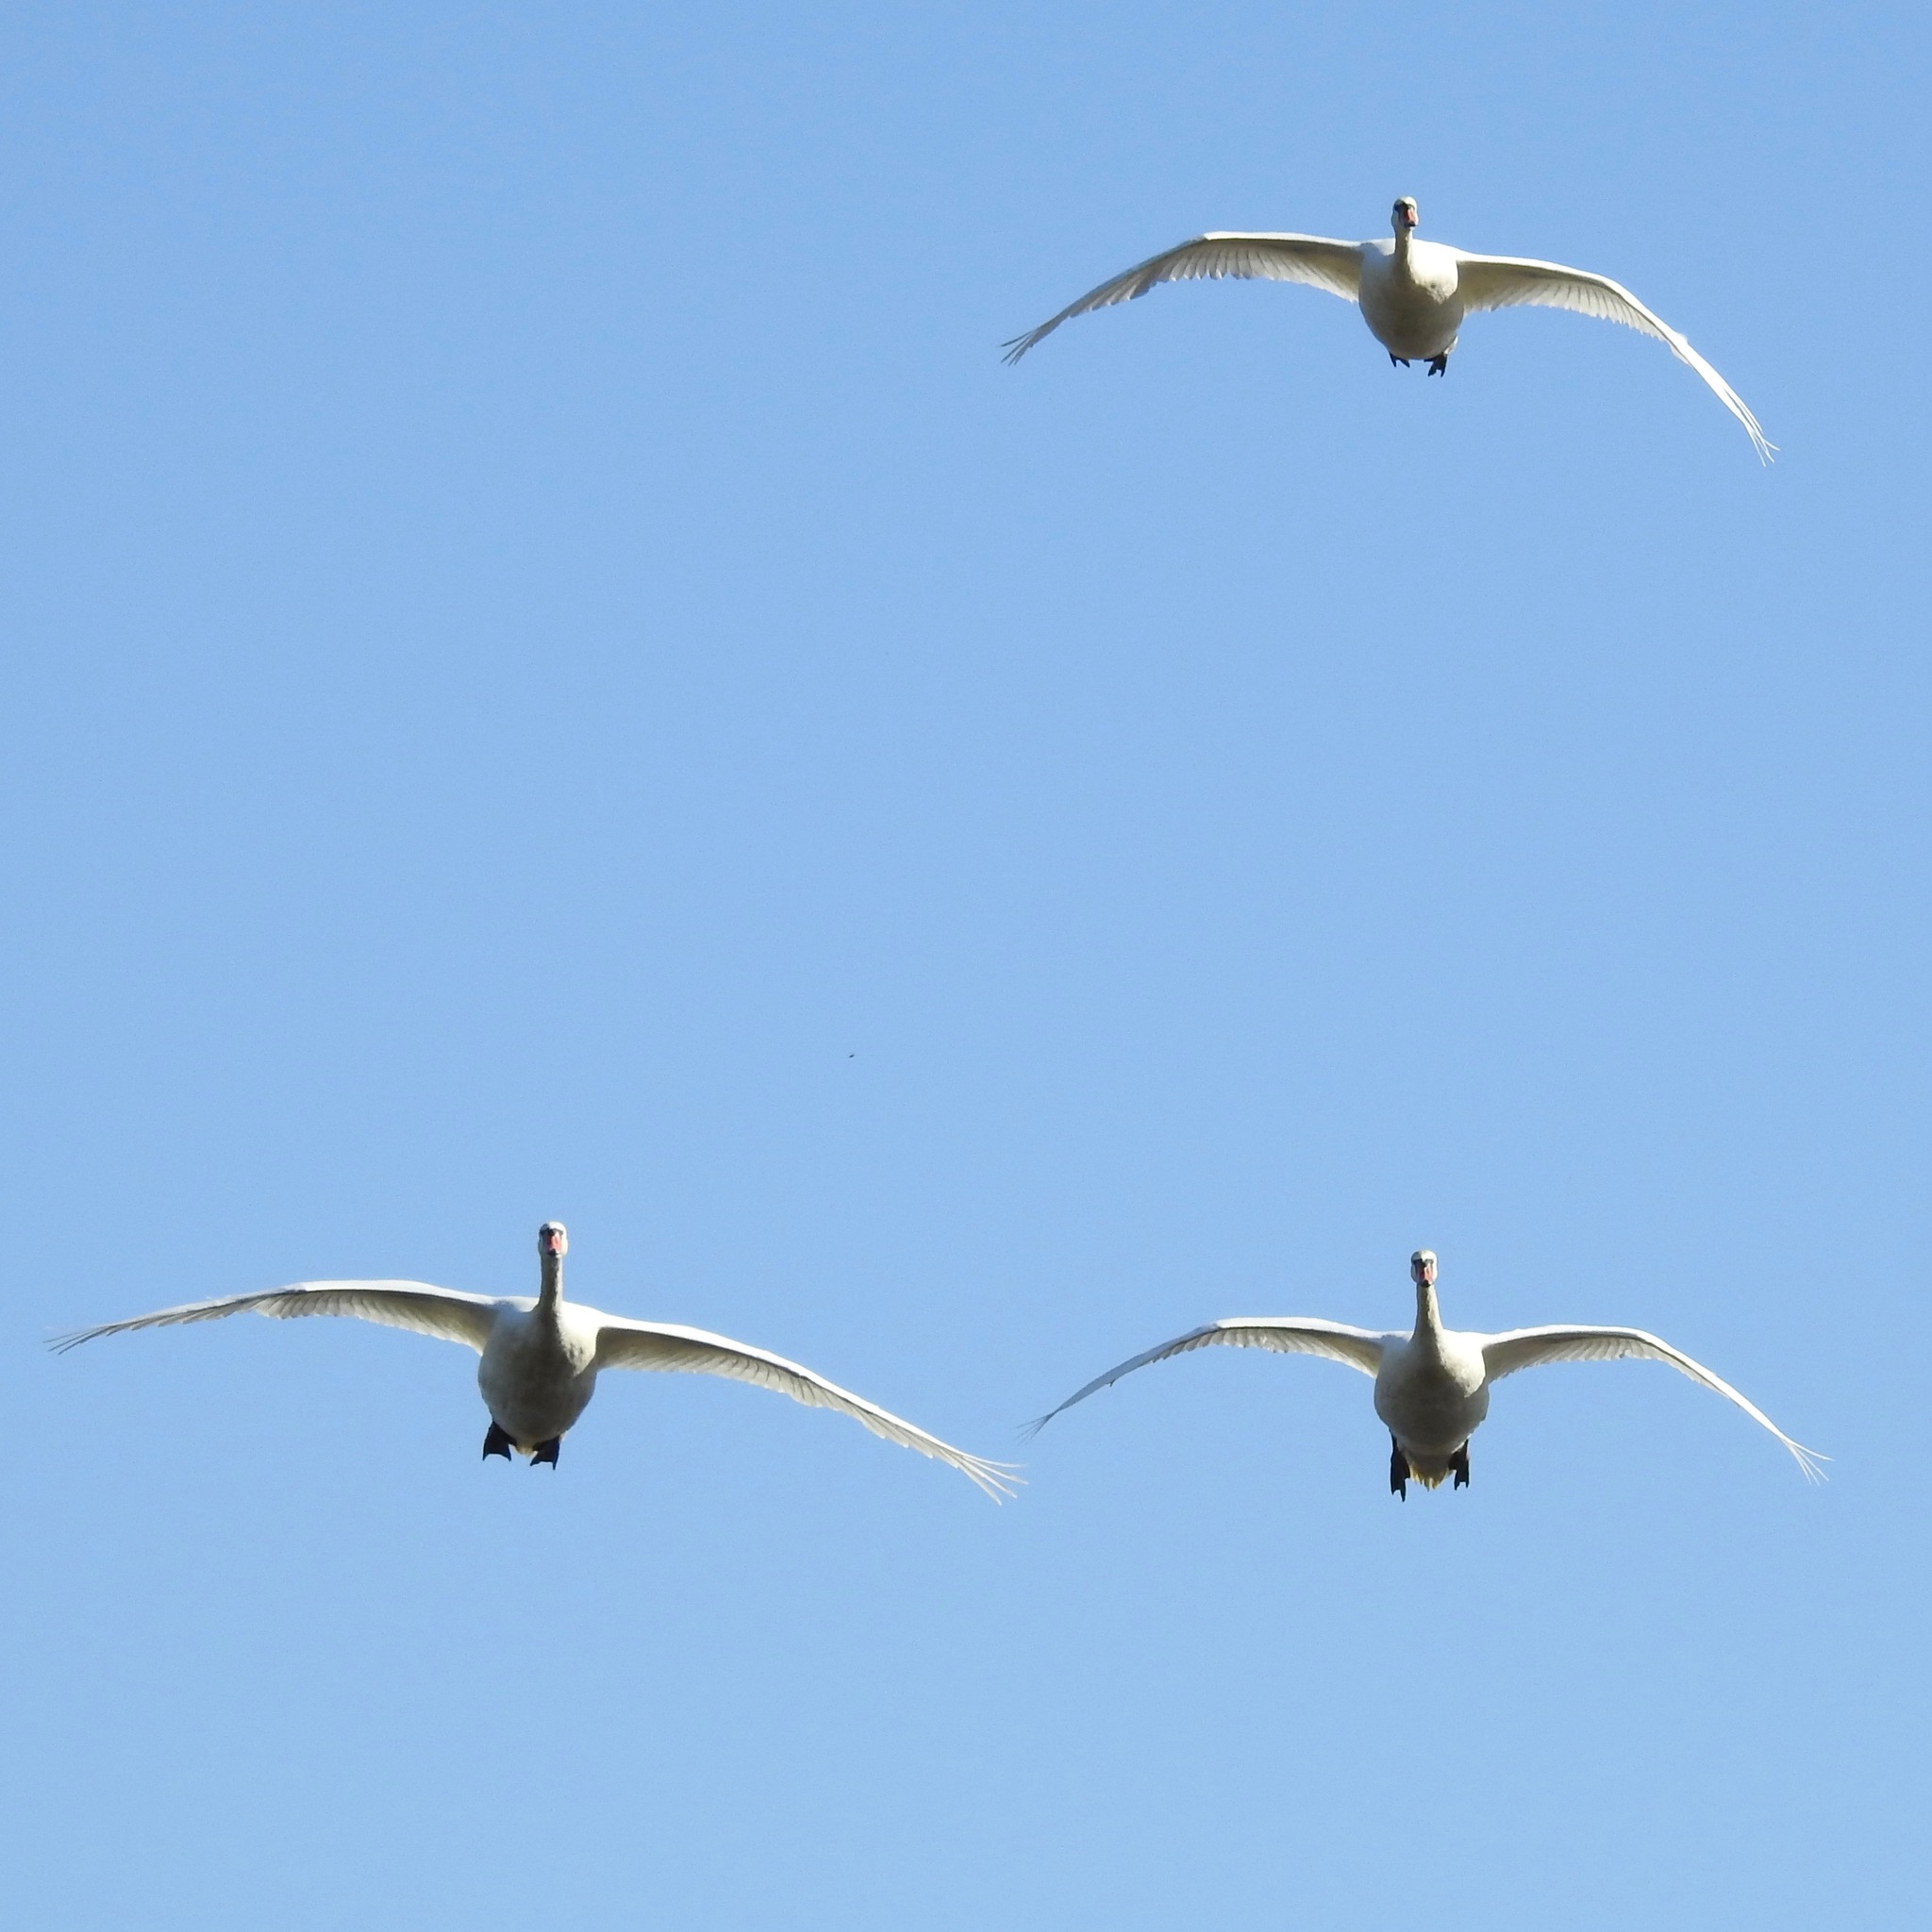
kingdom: Animalia
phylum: Chordata
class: Aves
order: Anseriformes
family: Anatidae
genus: Cygnus
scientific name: Cygnus olor
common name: Mute swan
